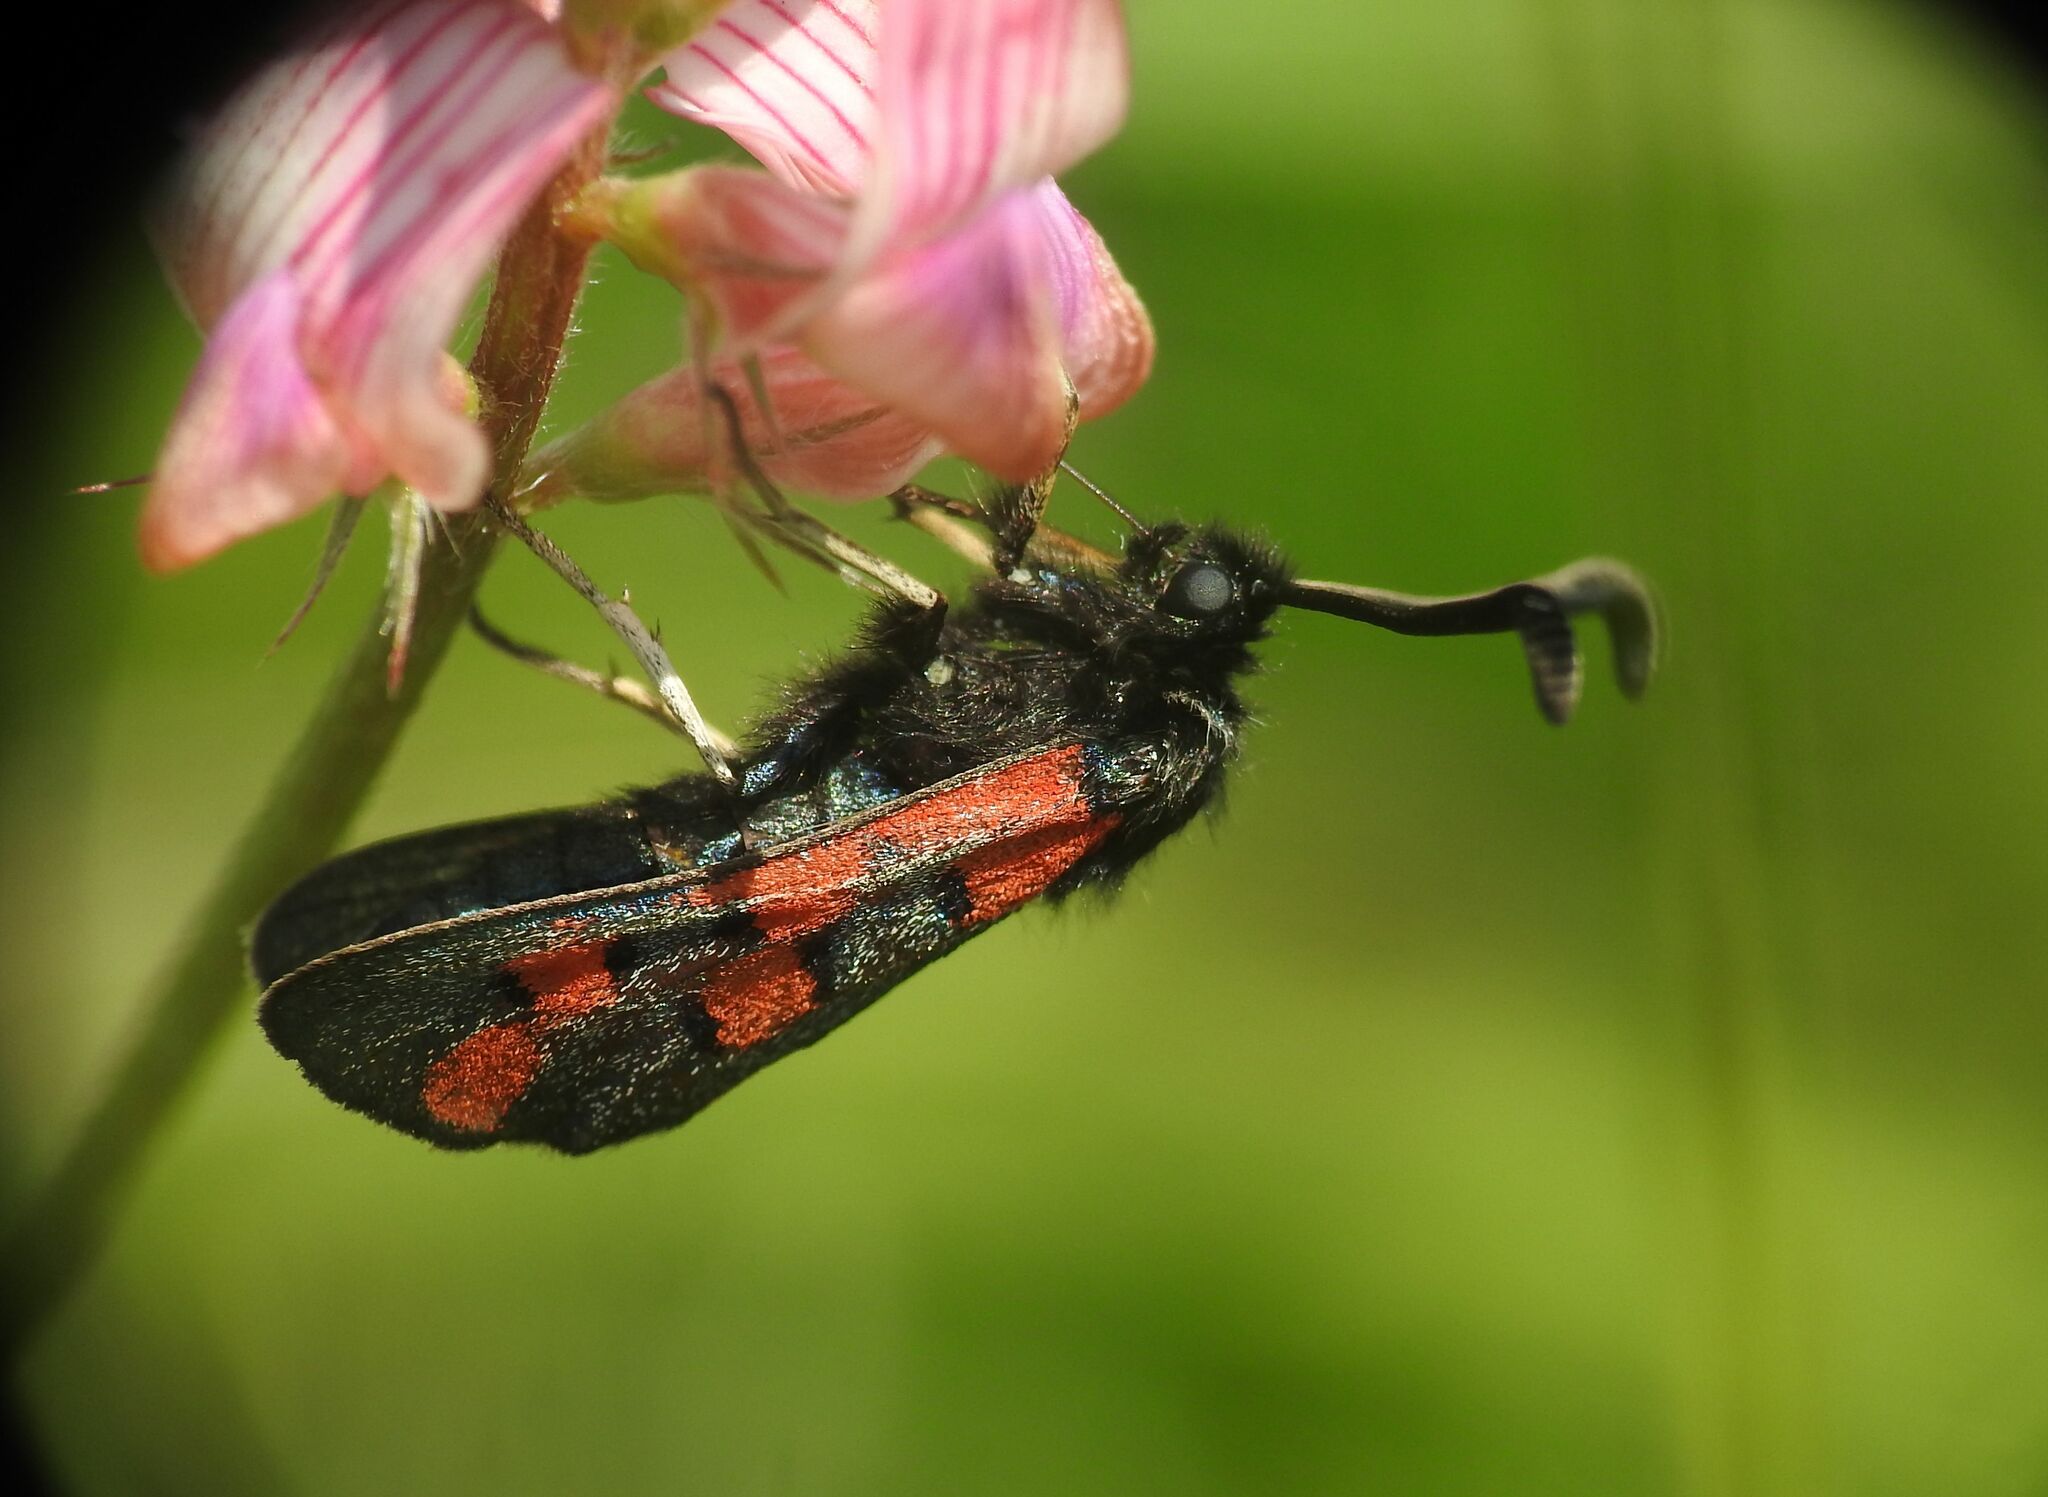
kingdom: Animalia
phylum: Arthropoda
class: Insecta
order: Lepidoptera
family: Zygaenidae
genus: Zygaena
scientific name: Zygaena rhadamanthus
